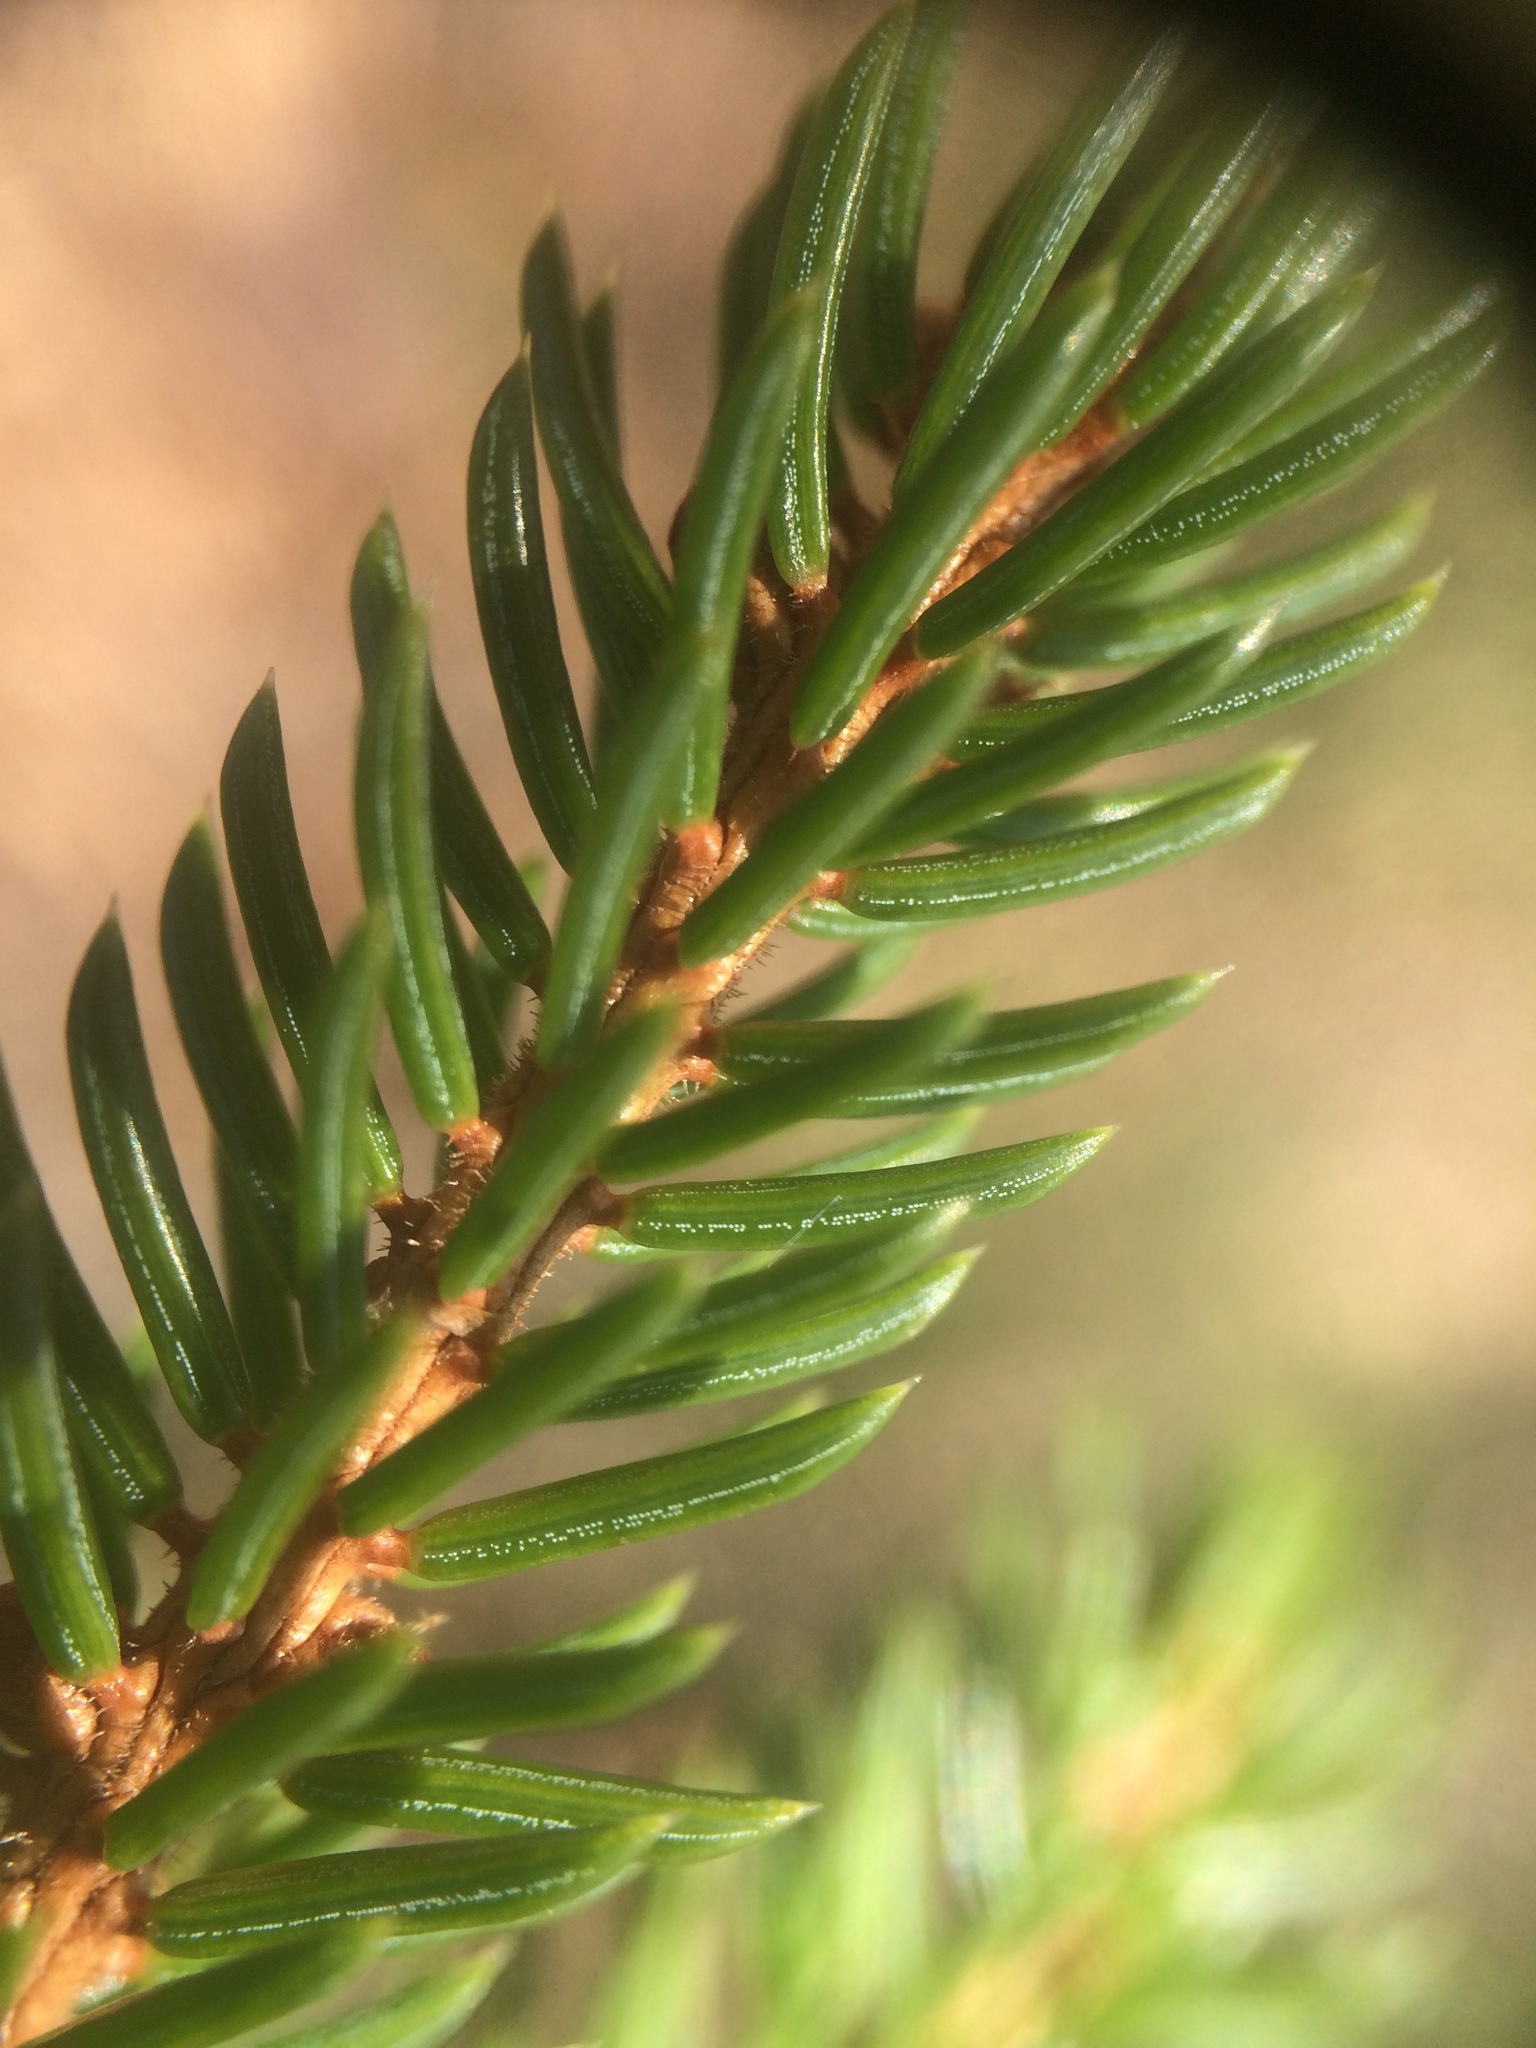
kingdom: Plantae
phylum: Tracheophyta
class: Pinopsida
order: Pinales
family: Pinaceae
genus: Picea
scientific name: Picea rubens
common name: Red spruce
